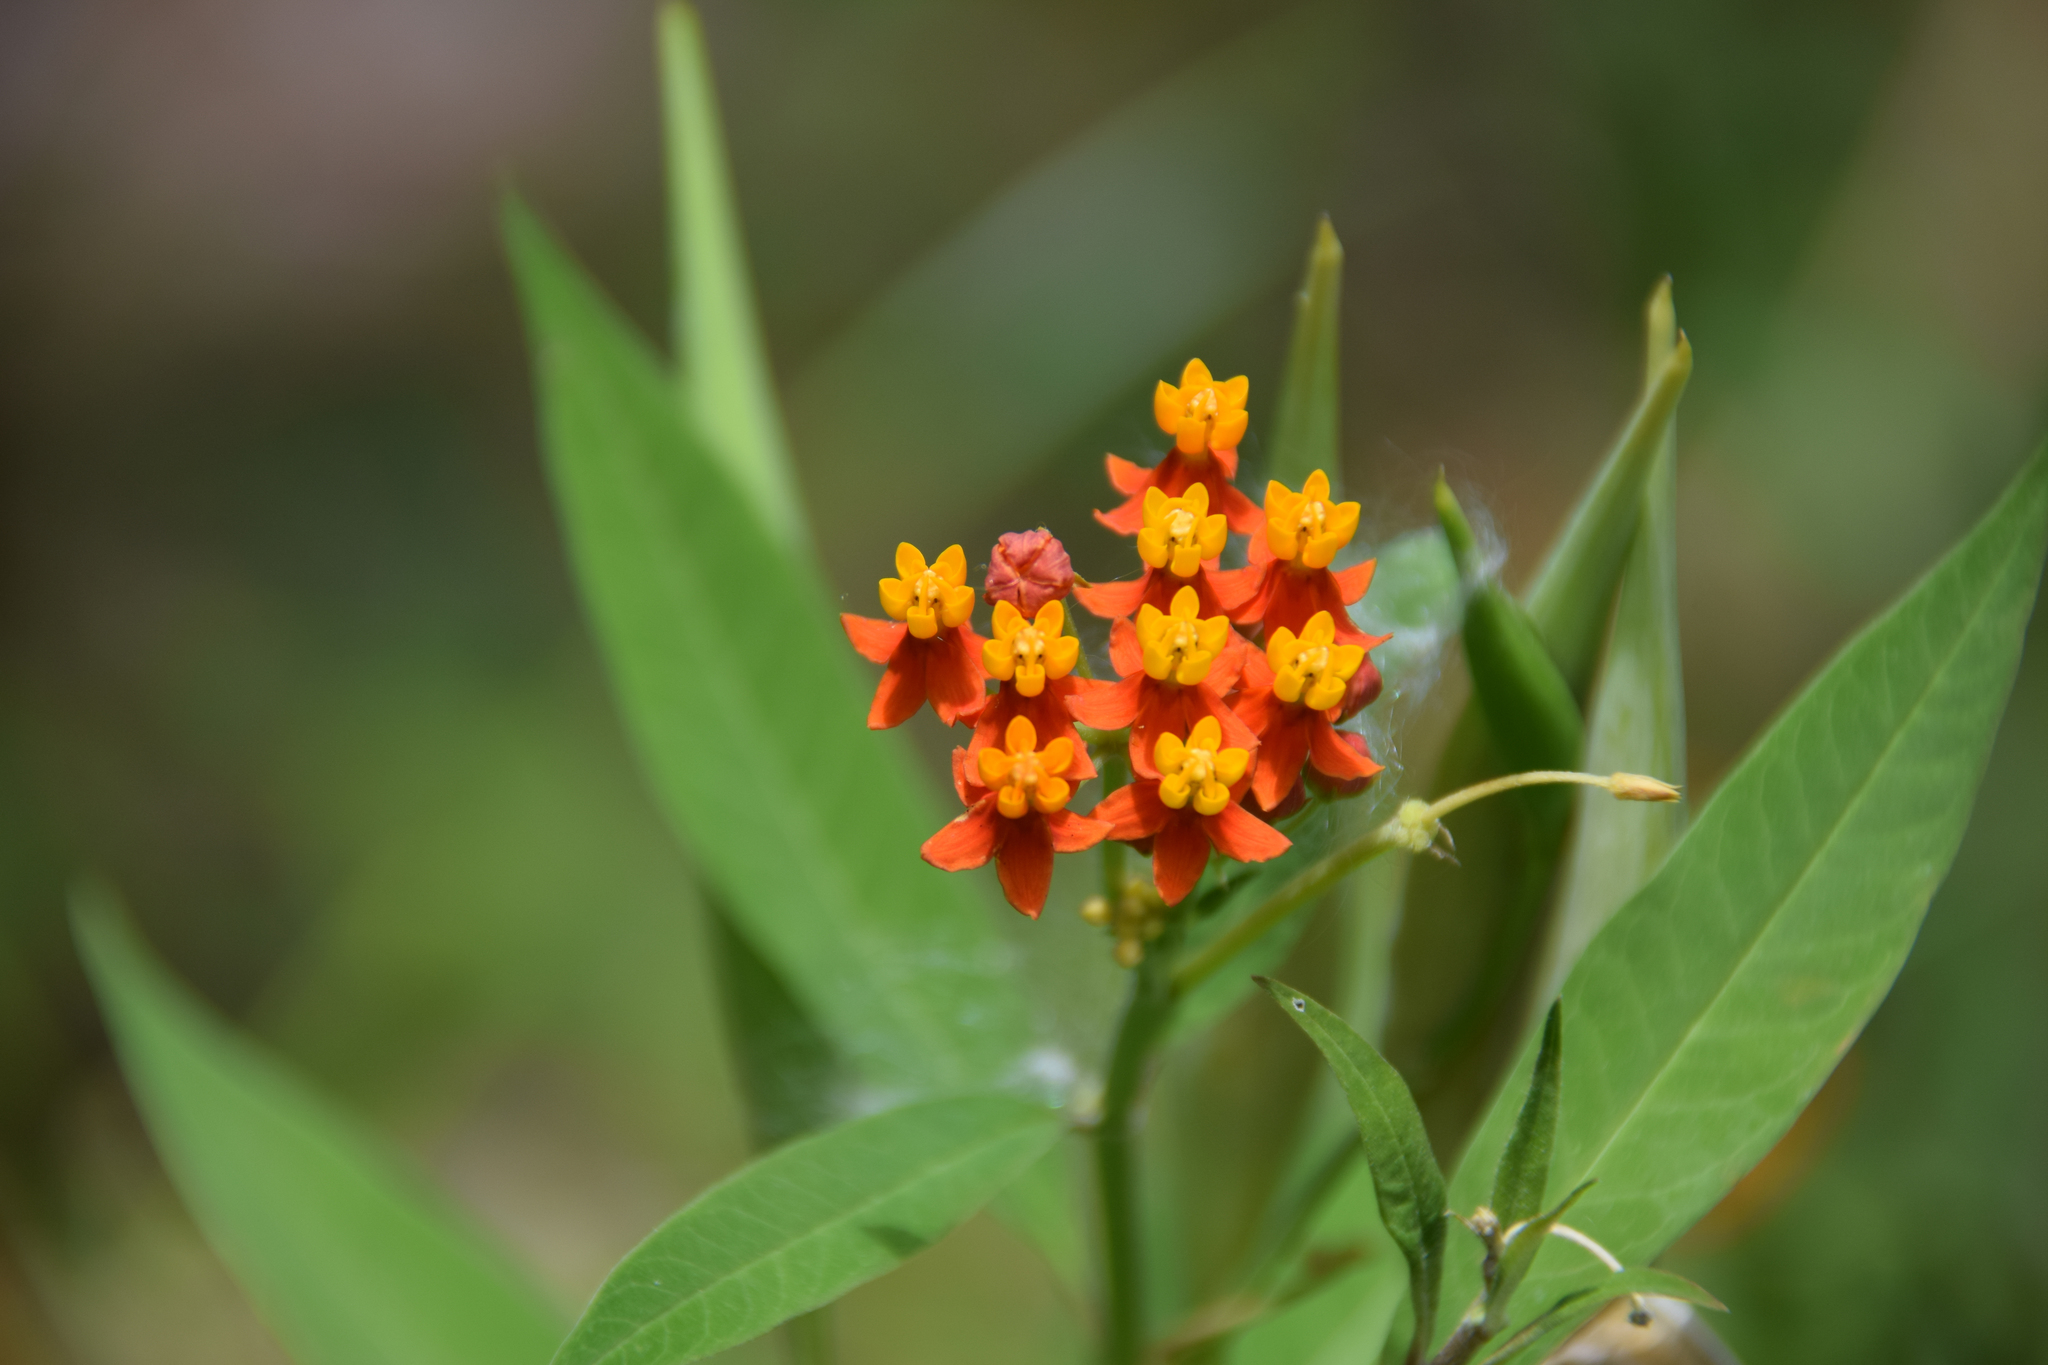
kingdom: Plantae
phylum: Tracheophyta
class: Magnoliopsida
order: Gentianales
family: Apocynaceae
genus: Asclepias
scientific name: Asclepias curassavica
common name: Bloodflower
